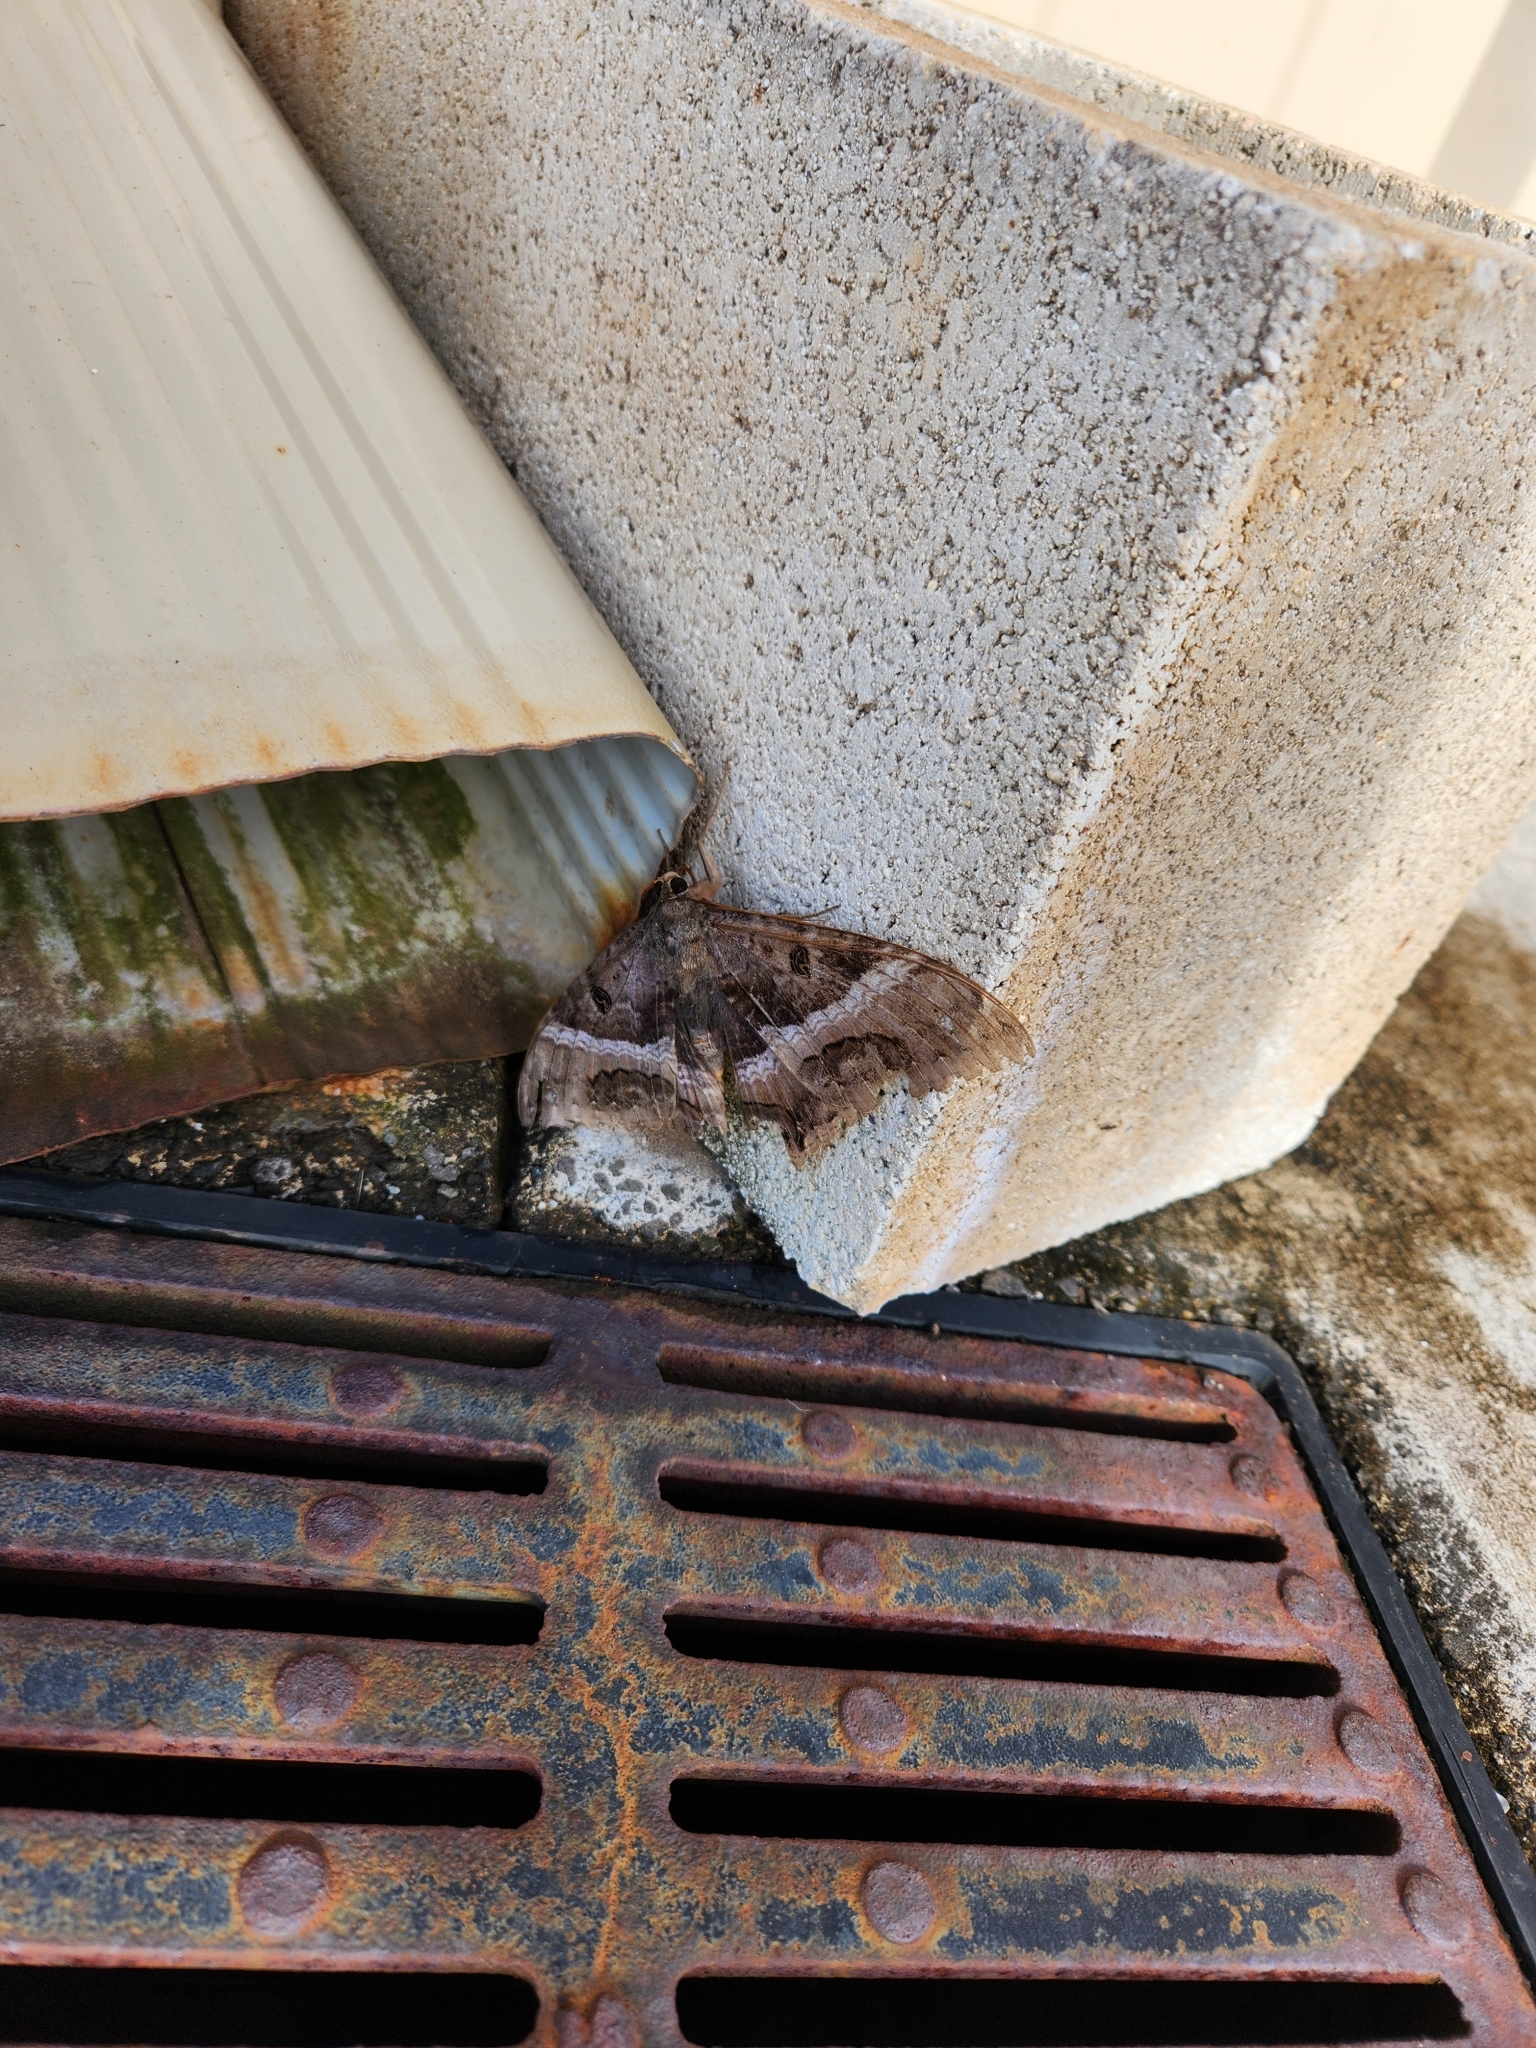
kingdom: Animalia
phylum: Arthropoda
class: Insecta
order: Lepidoptera
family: Erebidae
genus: Ascalapha
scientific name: Ascalapha odorata
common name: Black witch
